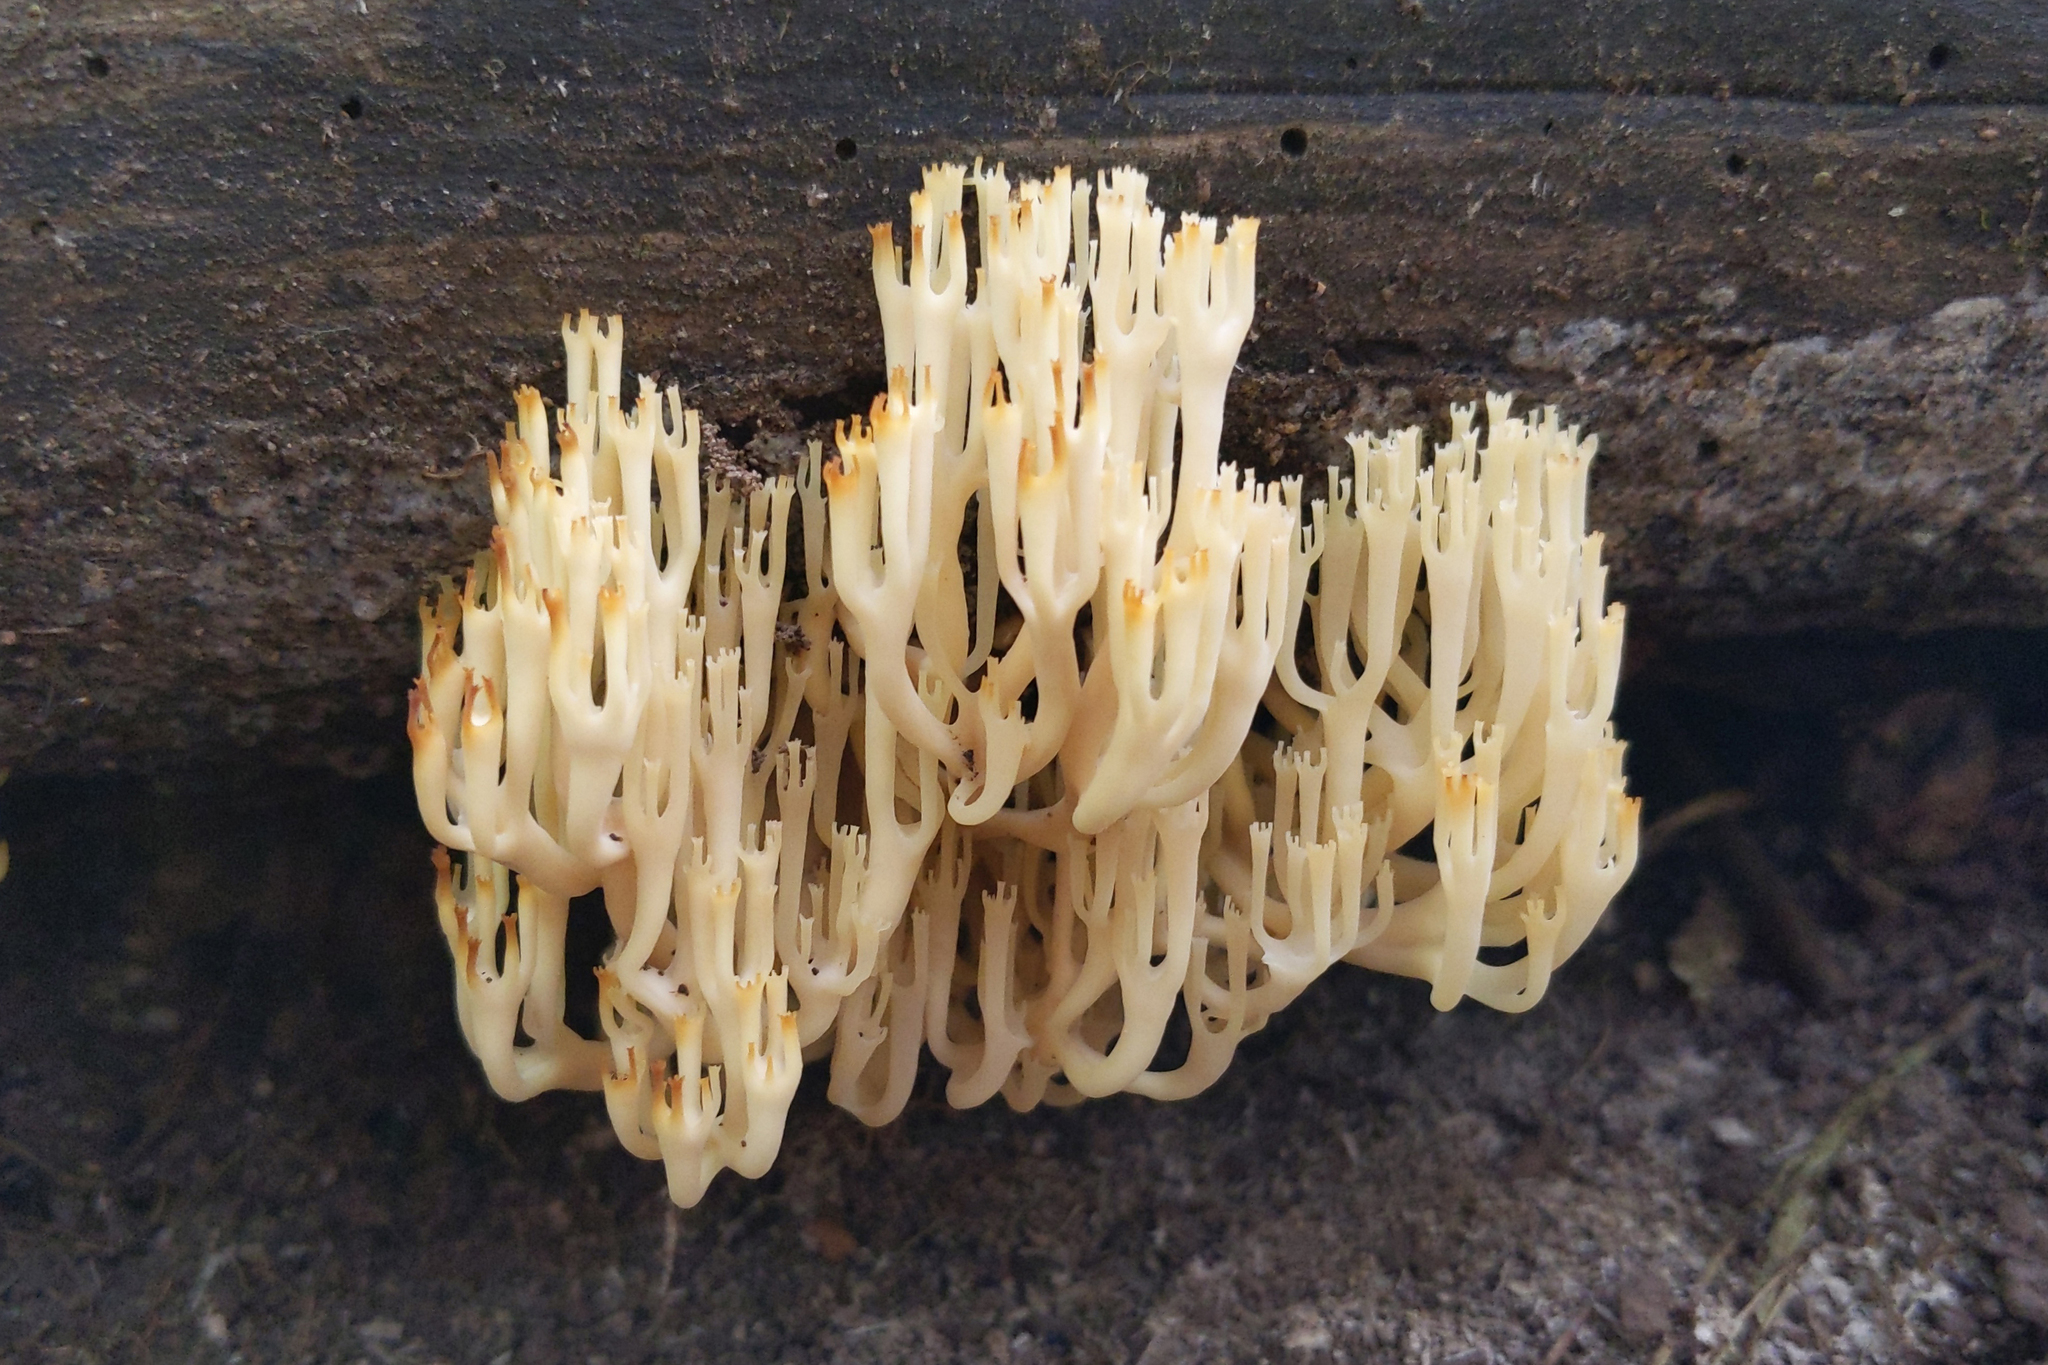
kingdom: Fungi
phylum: Basidiomycota
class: Agaricomycetes
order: Russulales
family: Auriscalpiaceae
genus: Artomyces
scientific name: Artomyces pyxidatus
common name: Crown-tipped coral fungus
